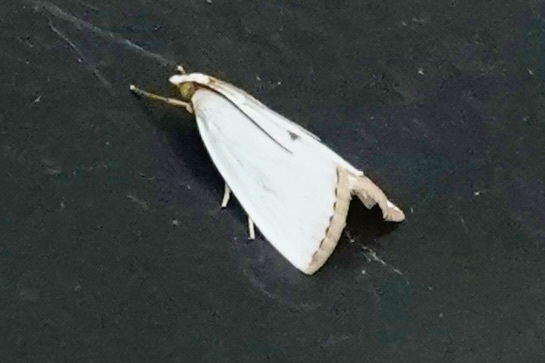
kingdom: Animalia
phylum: Arthropoda
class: Insecta
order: Lepidoptera
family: Crambidae
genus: Argyria
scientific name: Argyria nivalis
